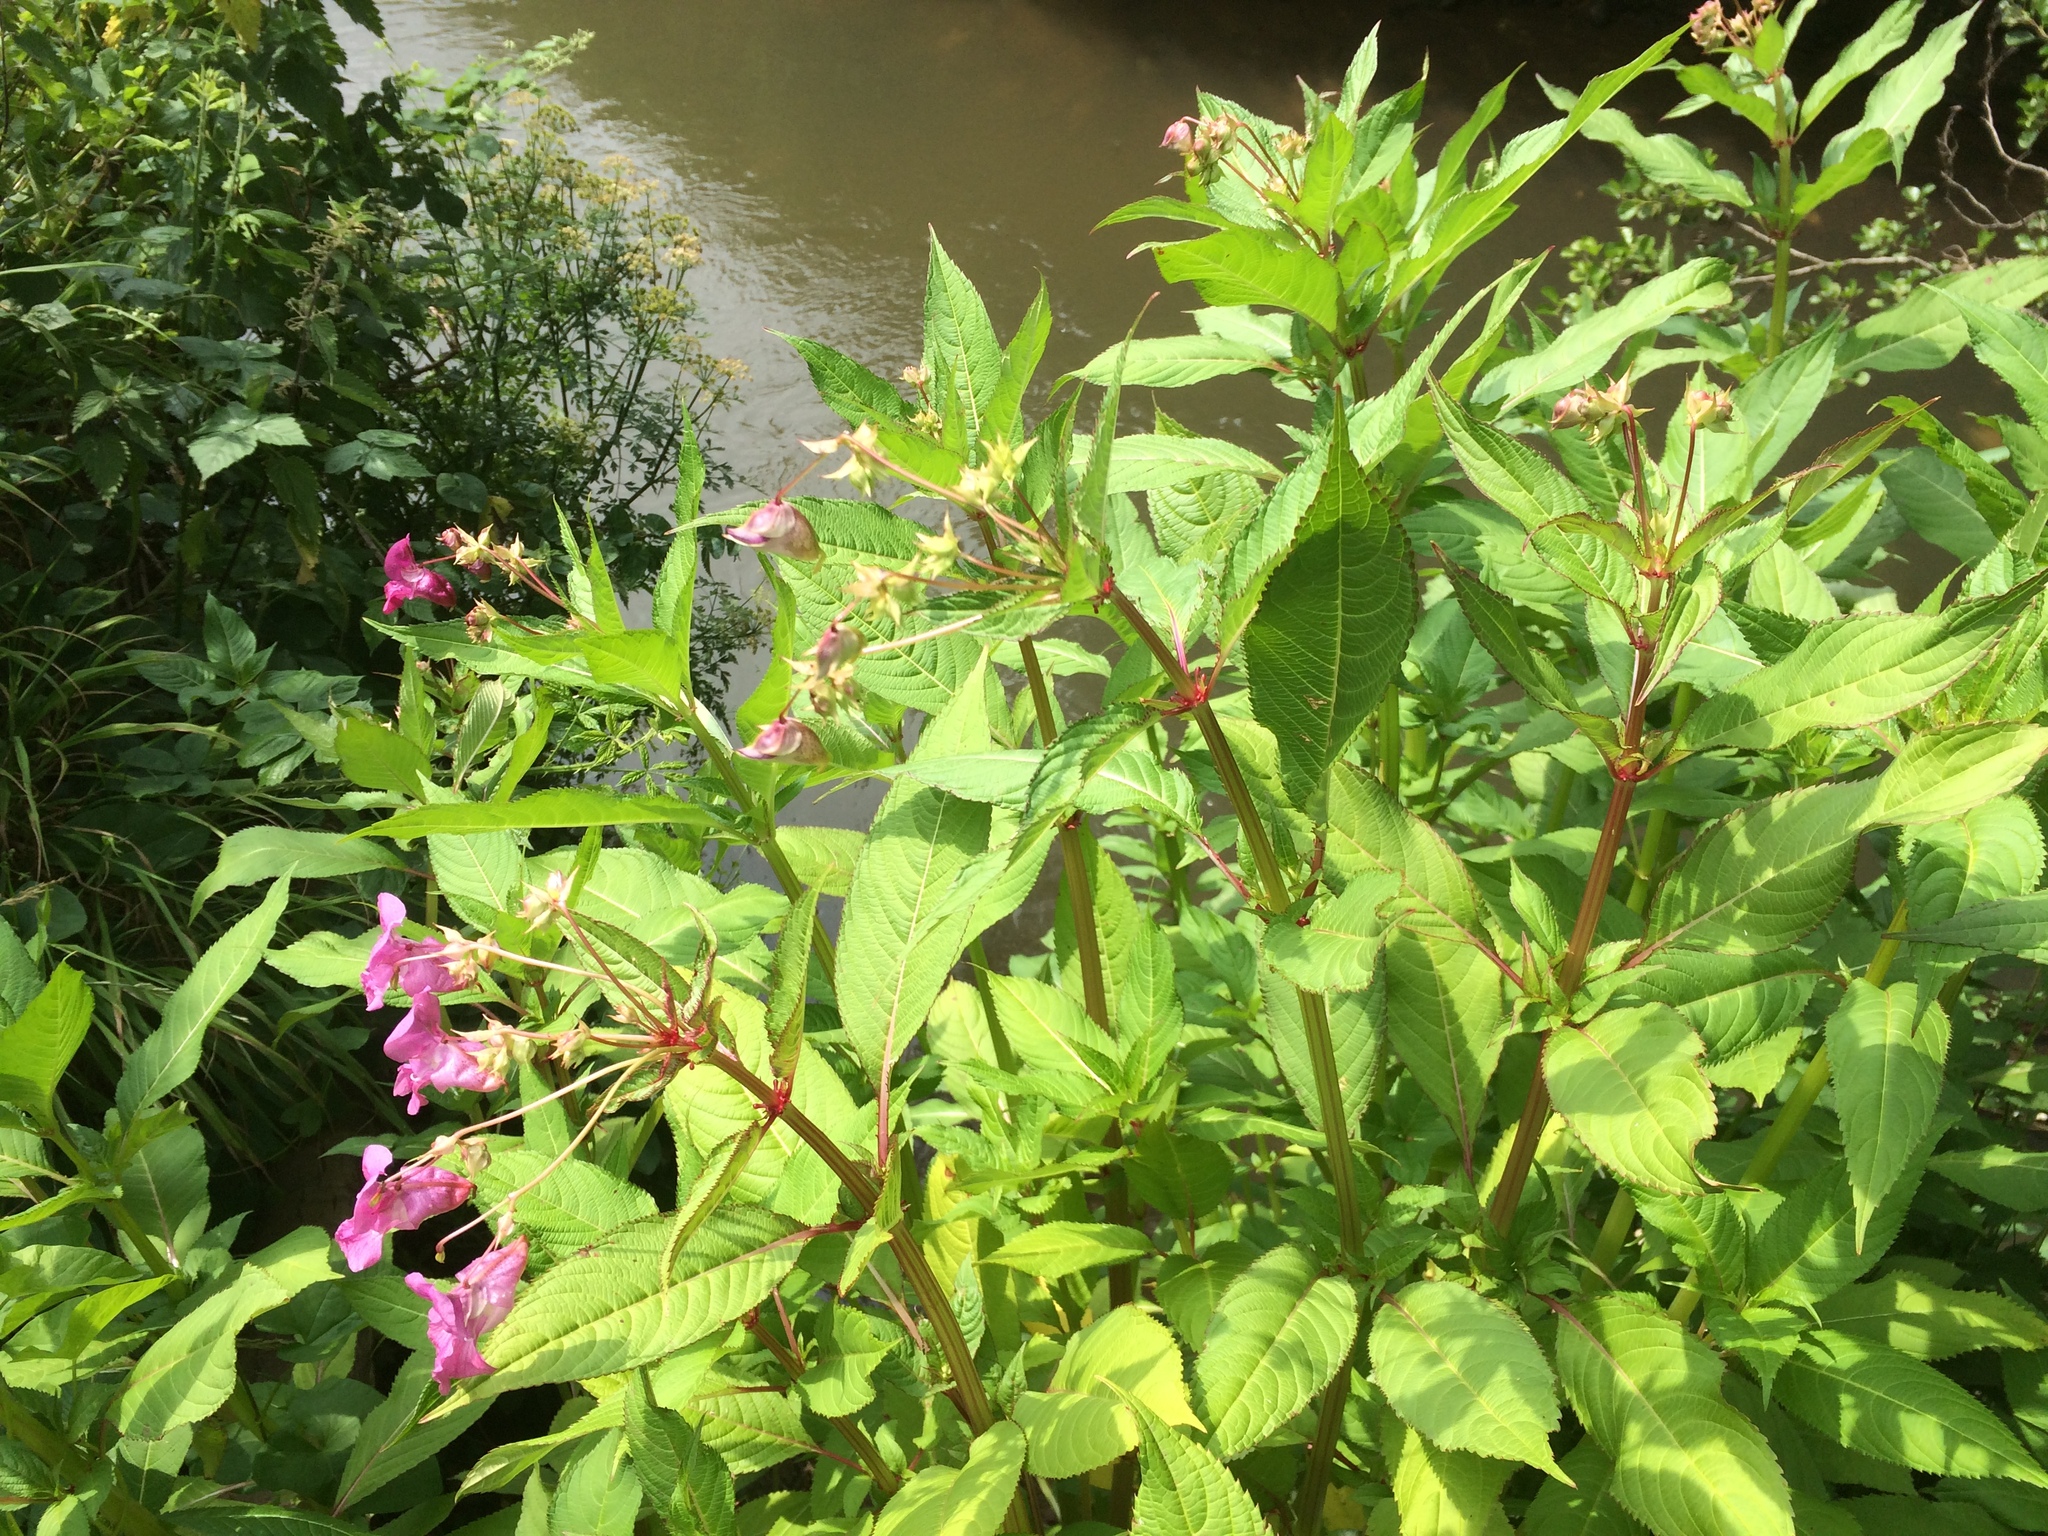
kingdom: Plantae
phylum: Tracheophyta
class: Magnoliopsida
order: Ericales
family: Balsaminaceae
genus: Impatiens
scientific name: Impatiens glandulifera
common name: Himalayan balsam
